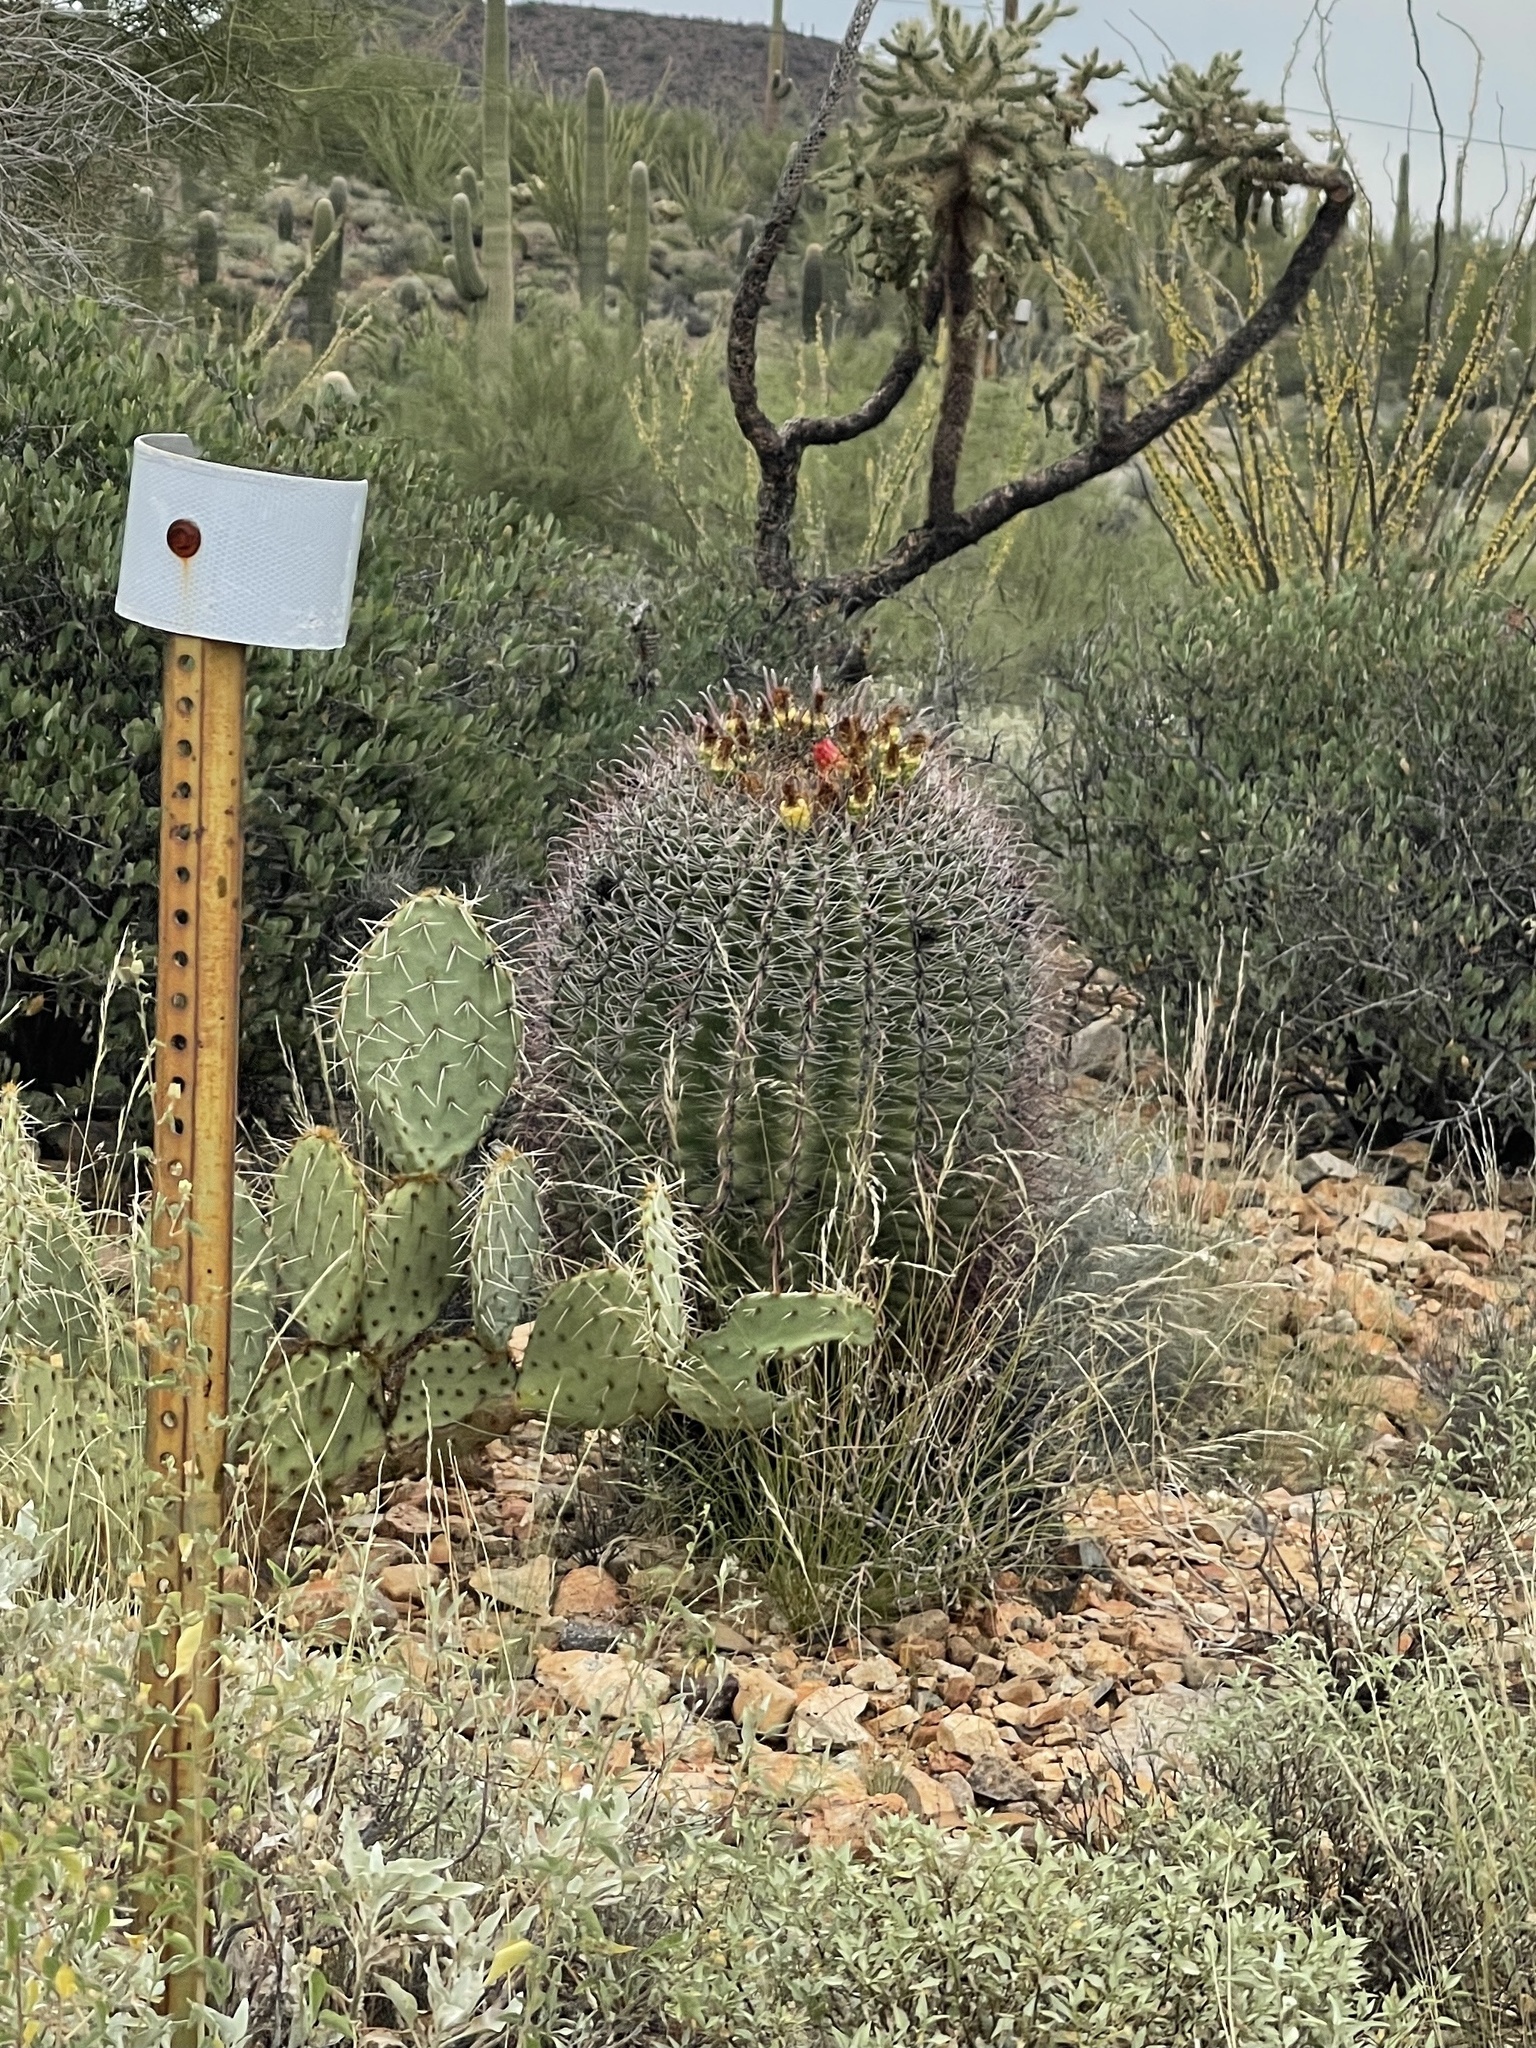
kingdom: Plantae
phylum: Tracheophyta
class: Magnoliopsida
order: Caryophyllales
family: Cactaceae
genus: Ferocactus
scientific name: Ferocactus wislizeni
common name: Candy barrel cactus
